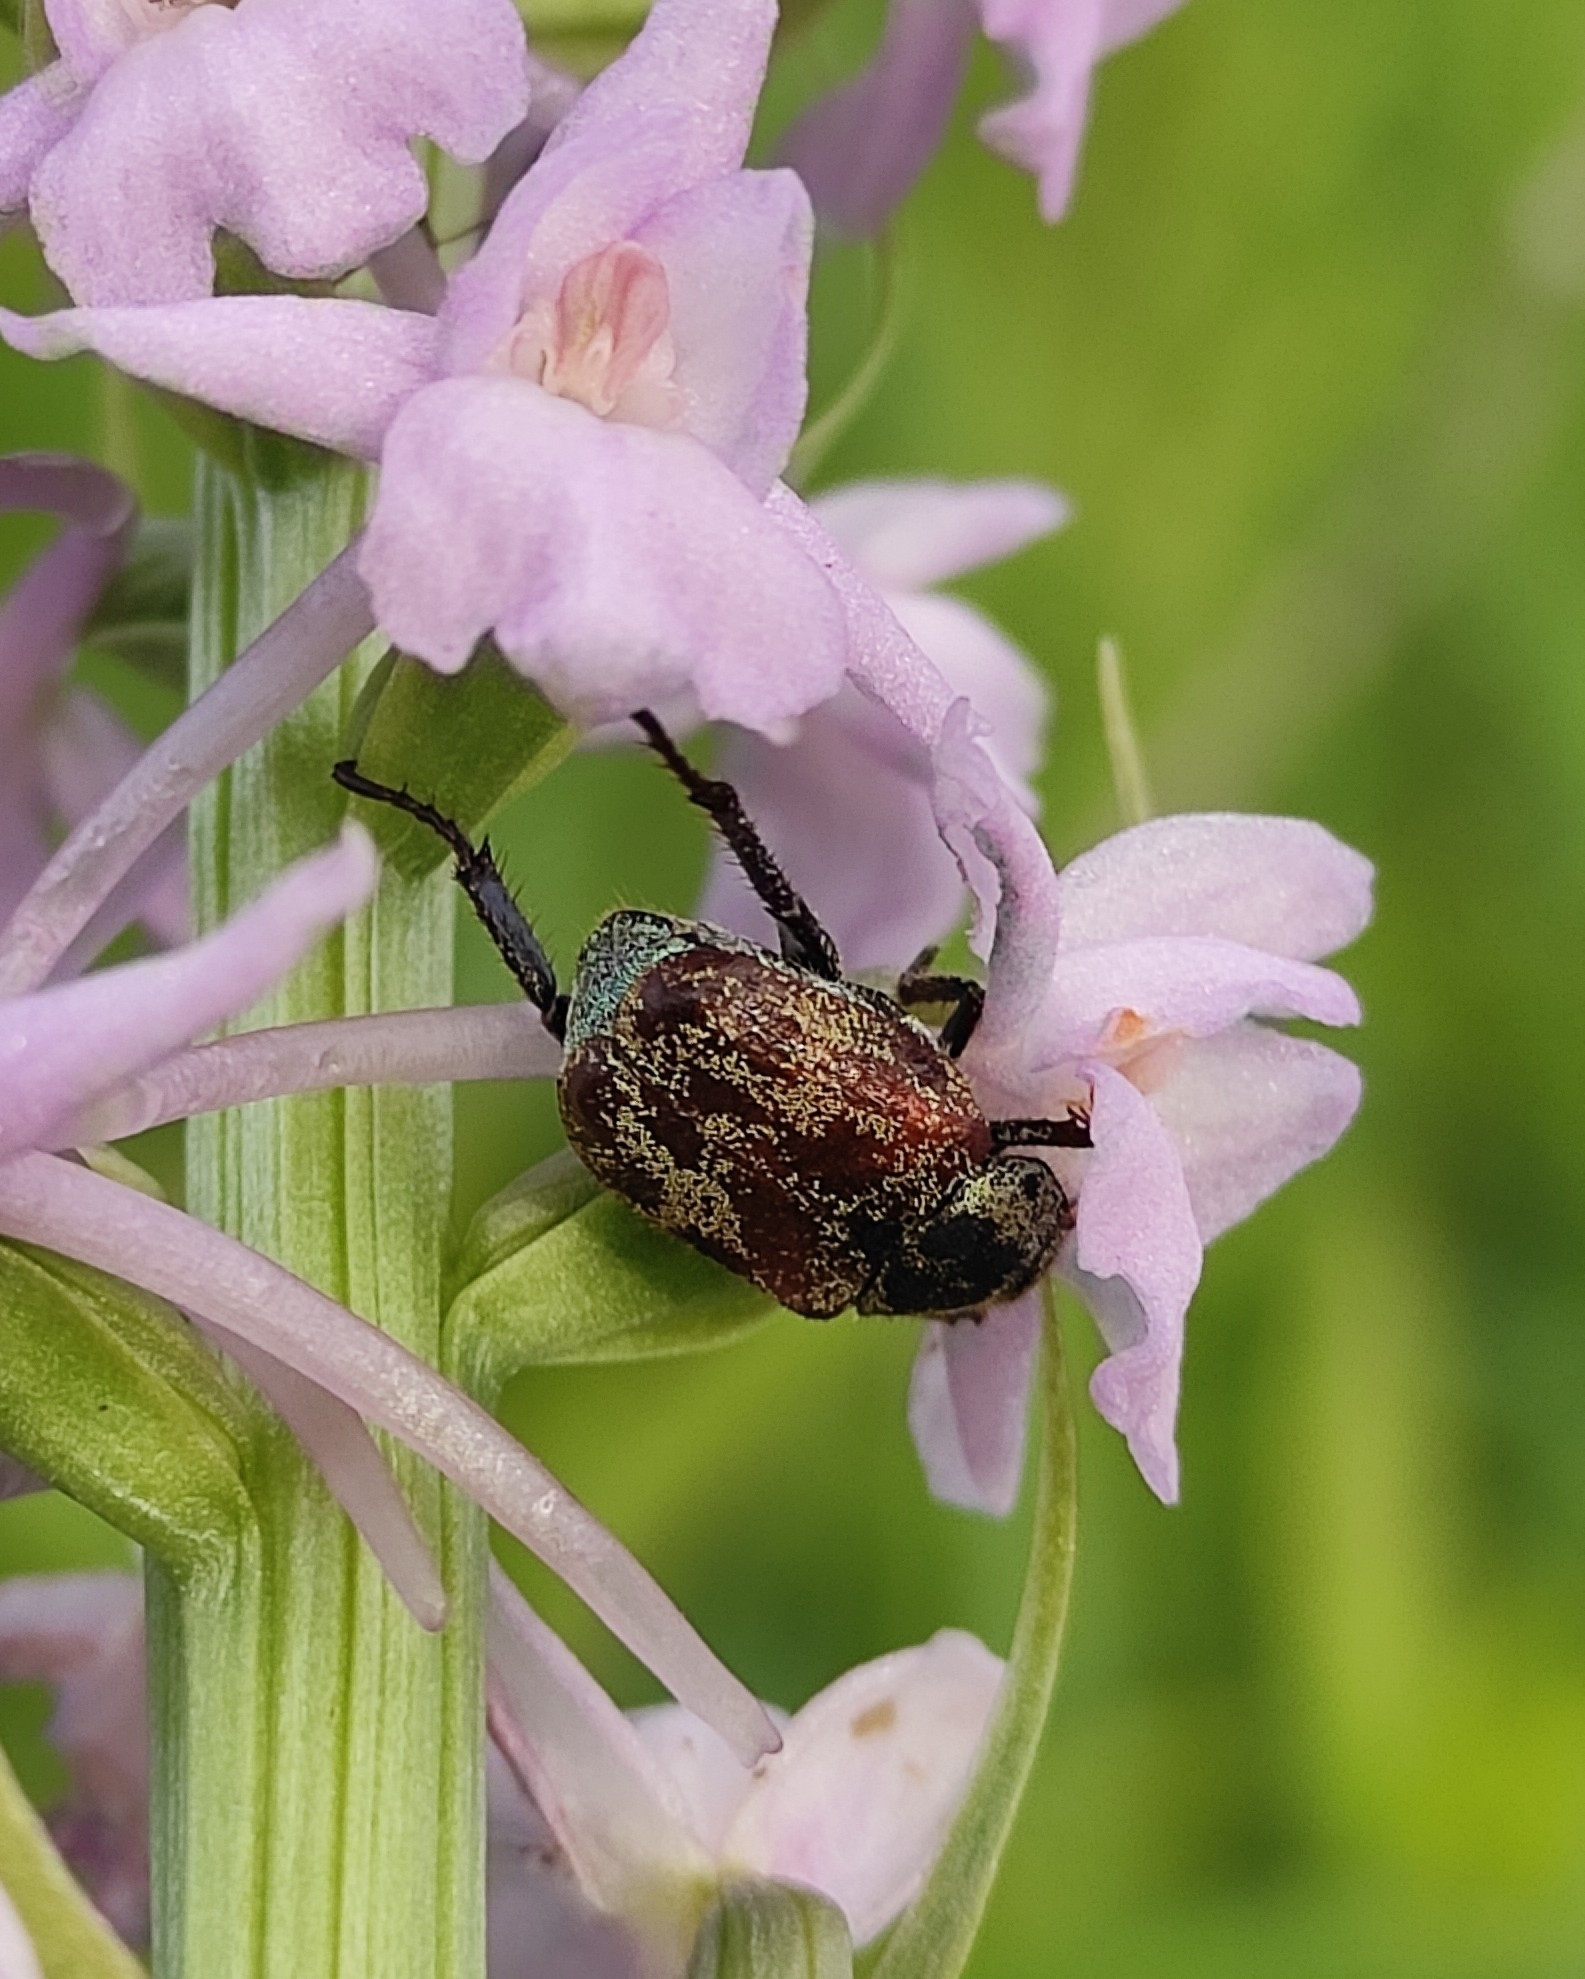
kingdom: Animalia
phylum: Arthropoda
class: Insecta
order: Coleoptera
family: Scarabaeidae
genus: Hoplia
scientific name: Hoplia aureola
